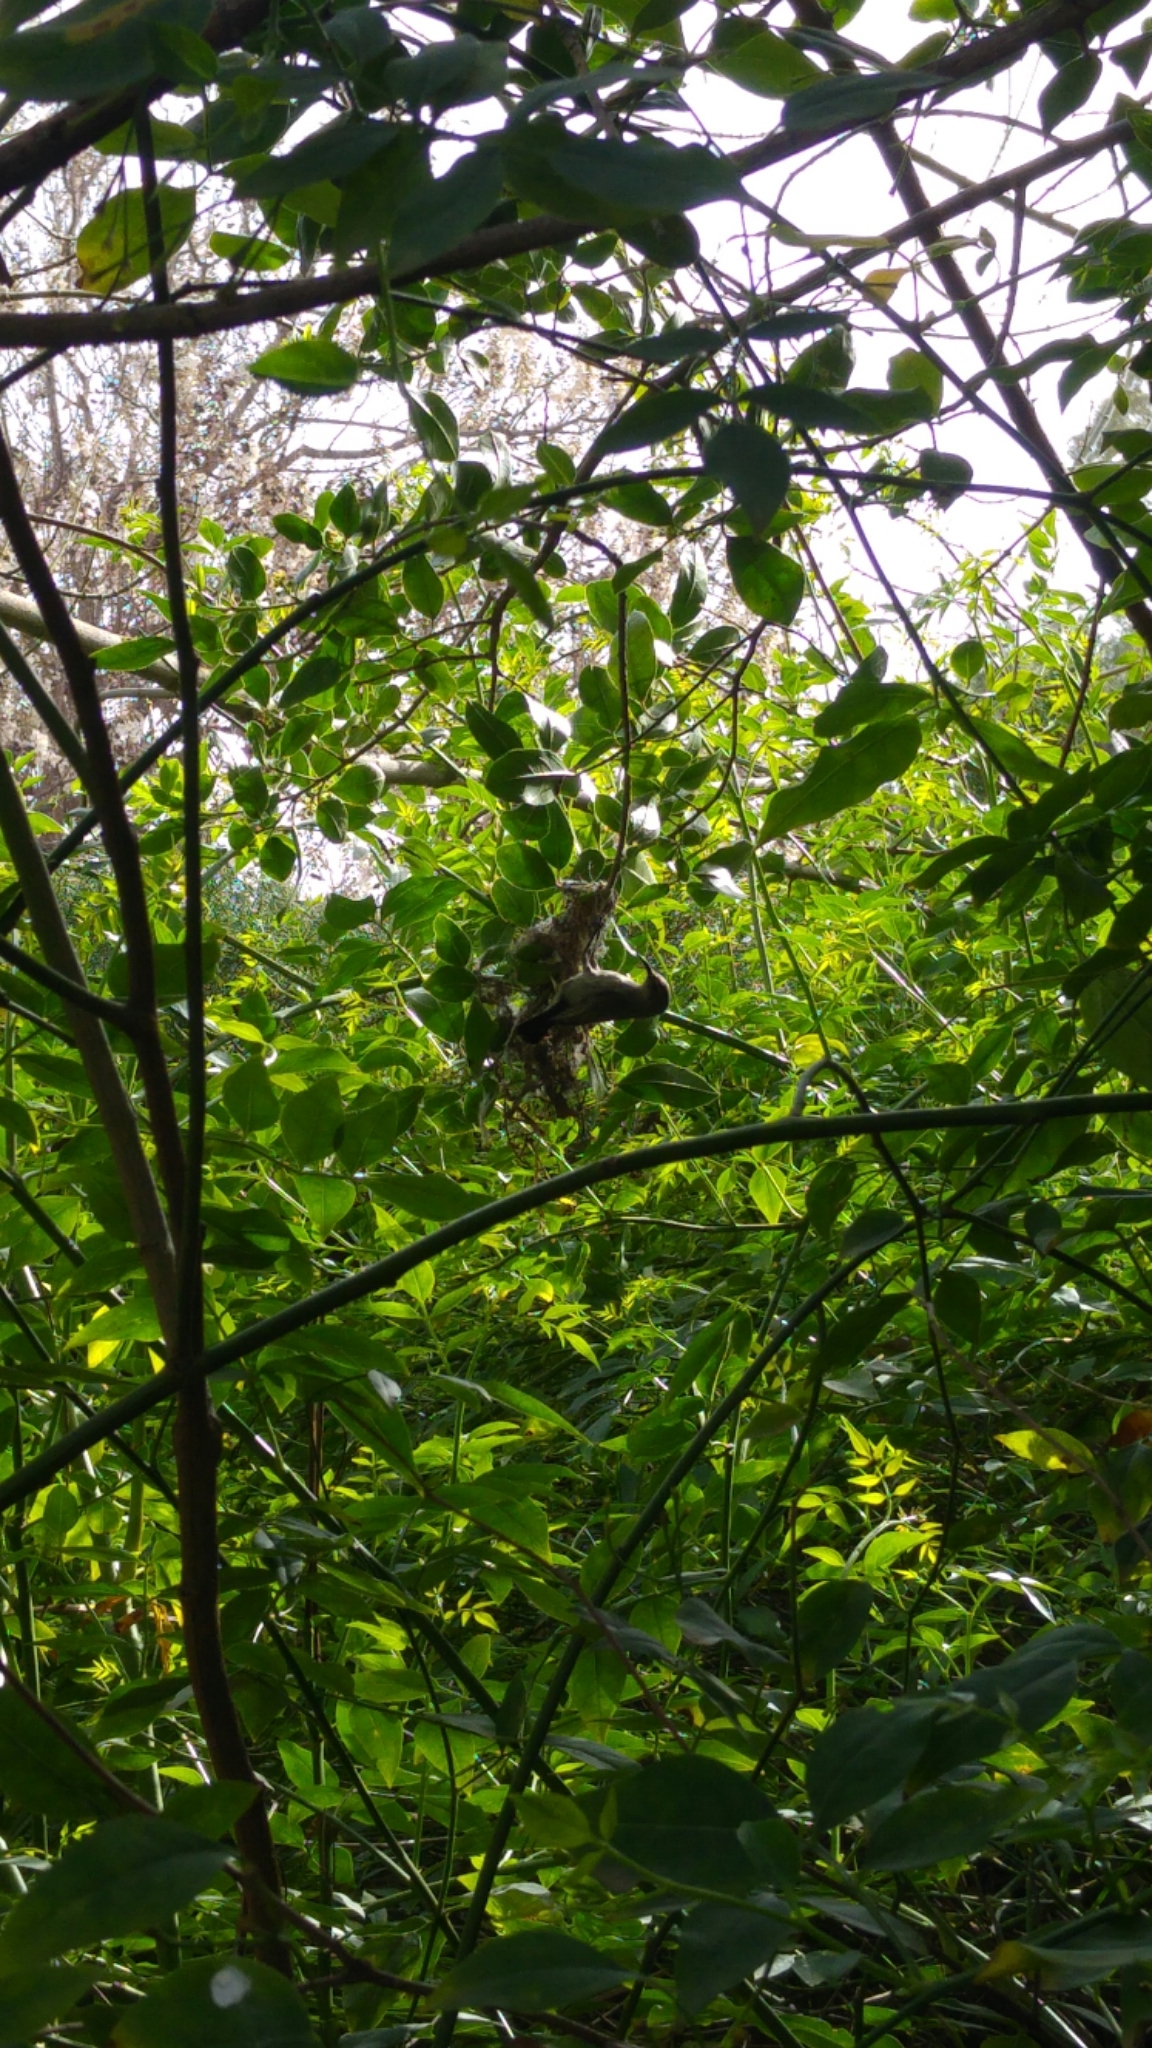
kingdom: Animalia
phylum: Chordata
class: Aves
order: Passeriformes
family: Nectariniidae
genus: Cinnyris
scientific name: Cinnyris osea
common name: Palestine sunbird
